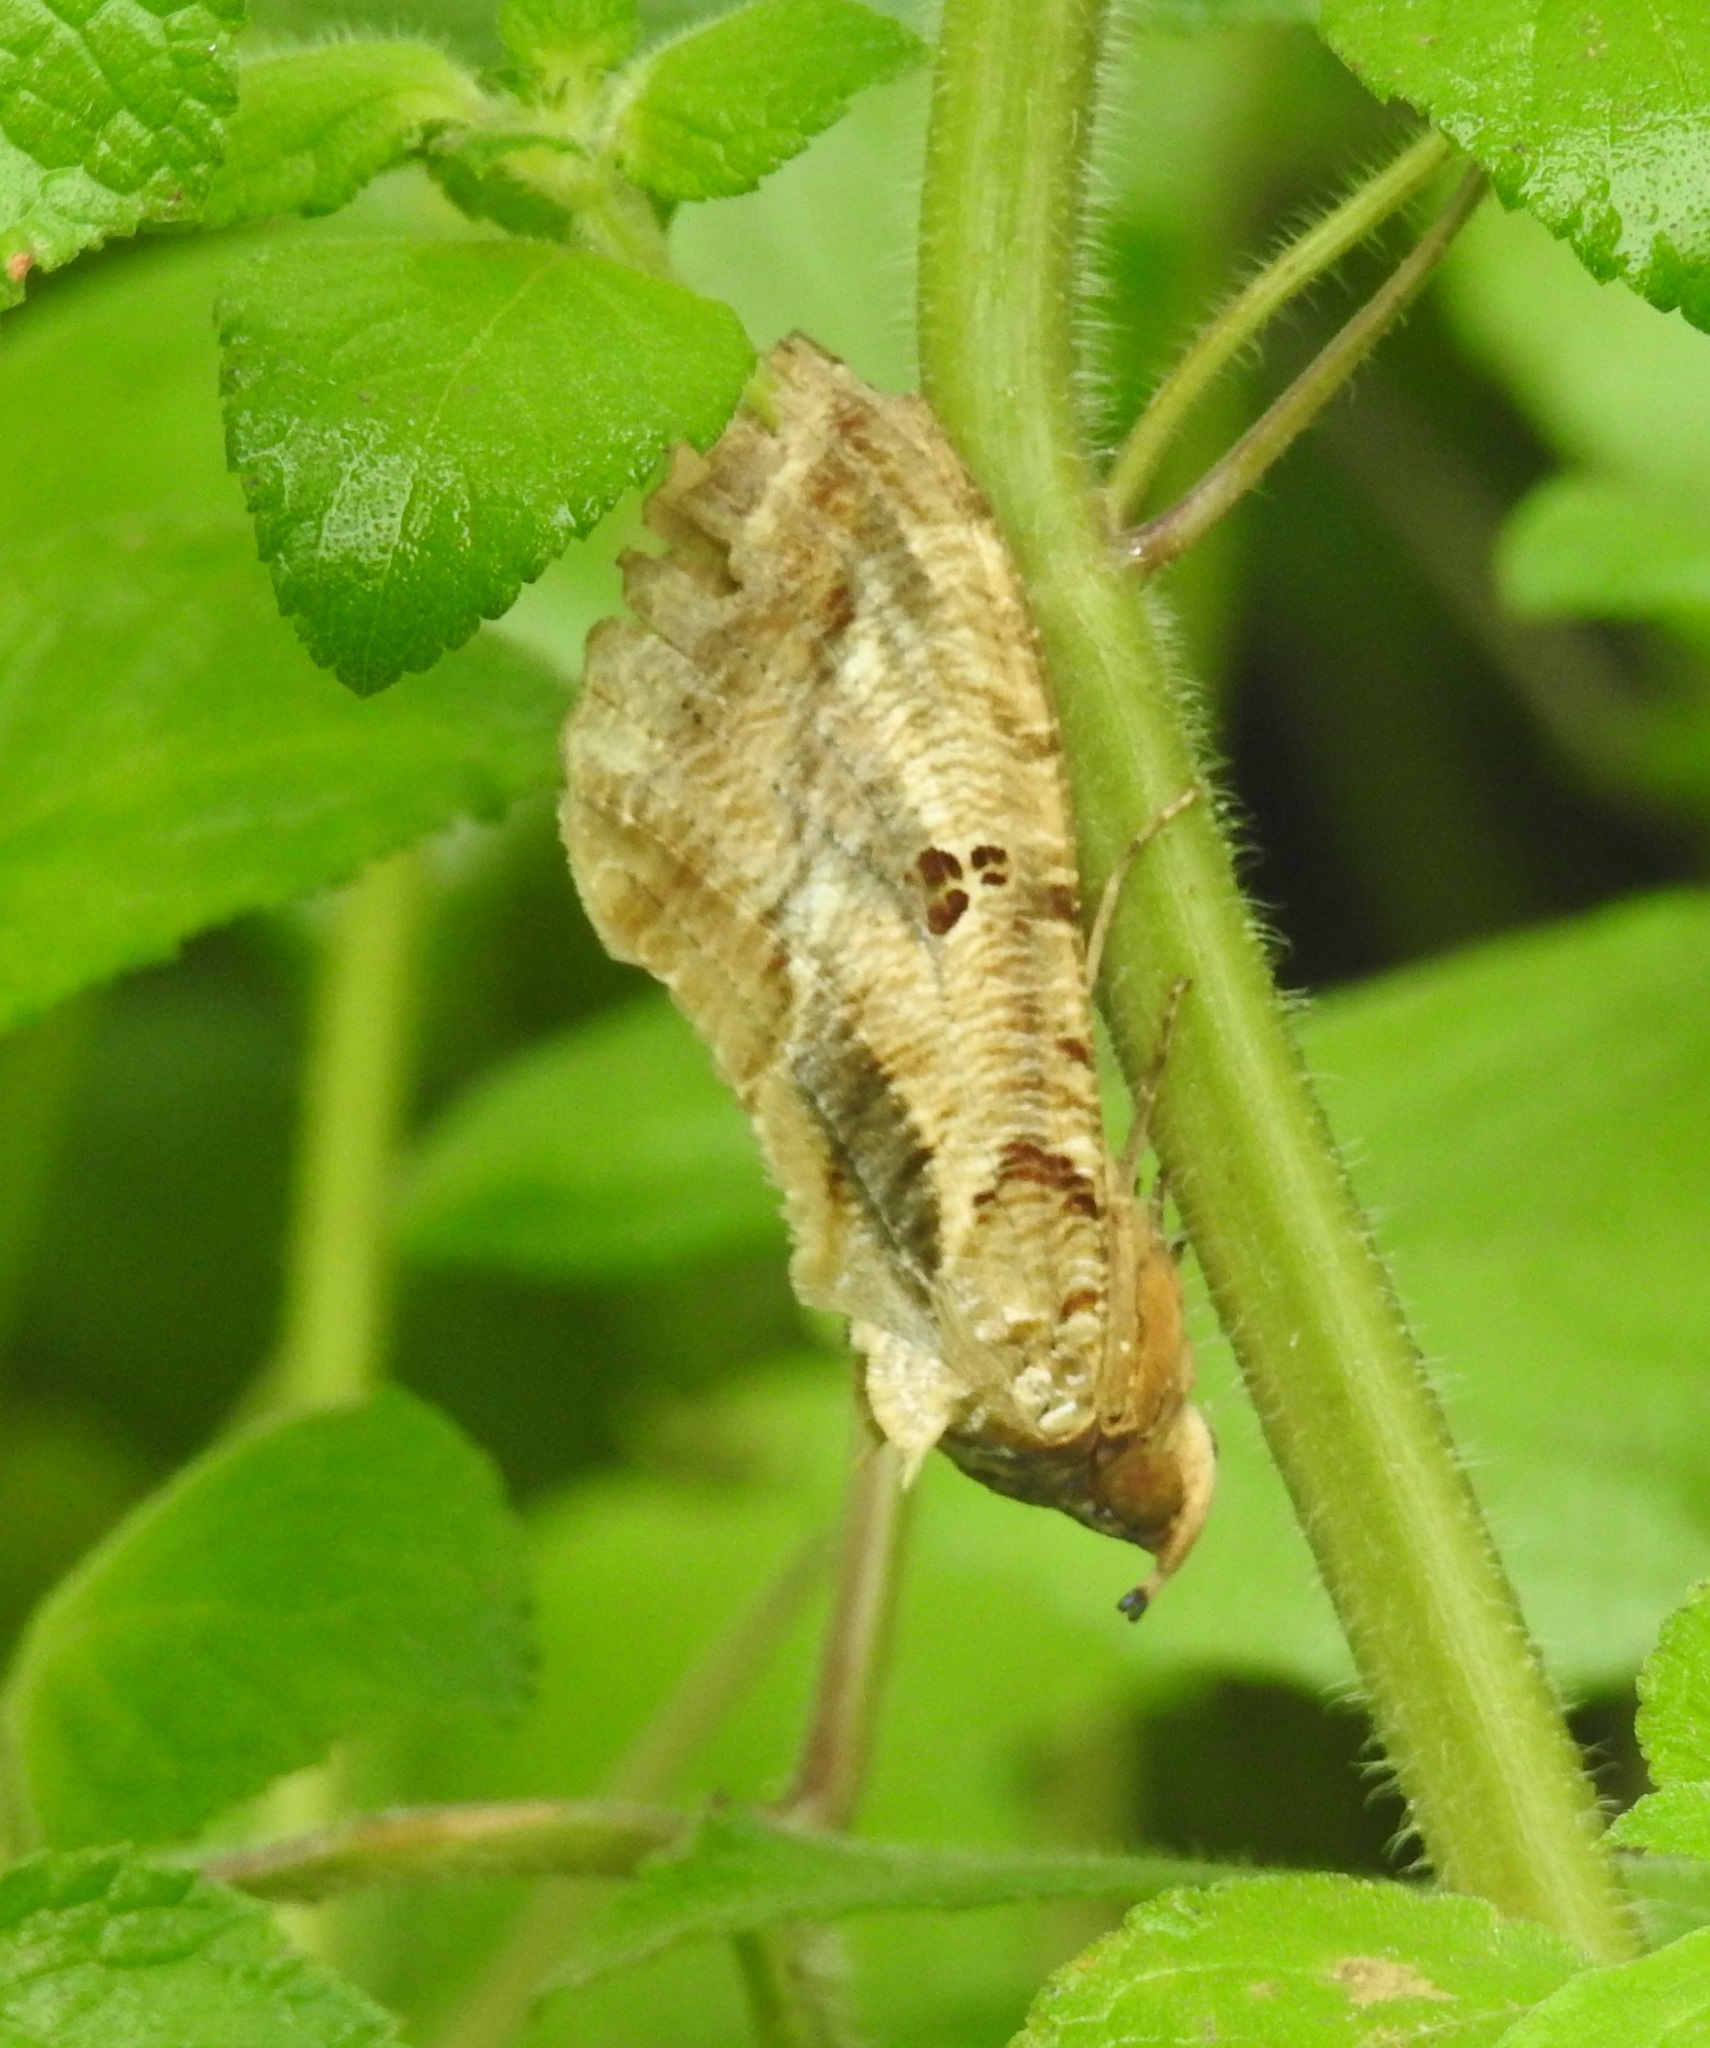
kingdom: Animalia
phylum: Arthropoda
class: Insecta
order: Lepidoptera
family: Erebidae
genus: Eudocima
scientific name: Eudocima materna
